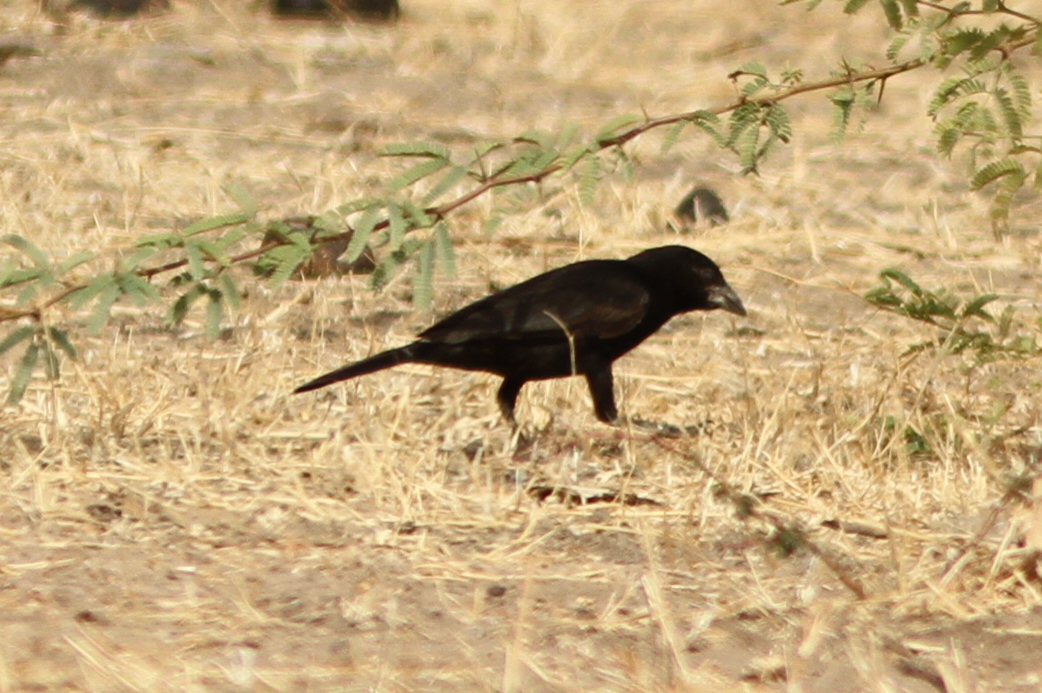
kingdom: Animalia
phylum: Chordata
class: Aves
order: Passeriformes
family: Ploceidae
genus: Bubalornis
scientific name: Bubalornis albirostris
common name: White-billed buffalo weaver
